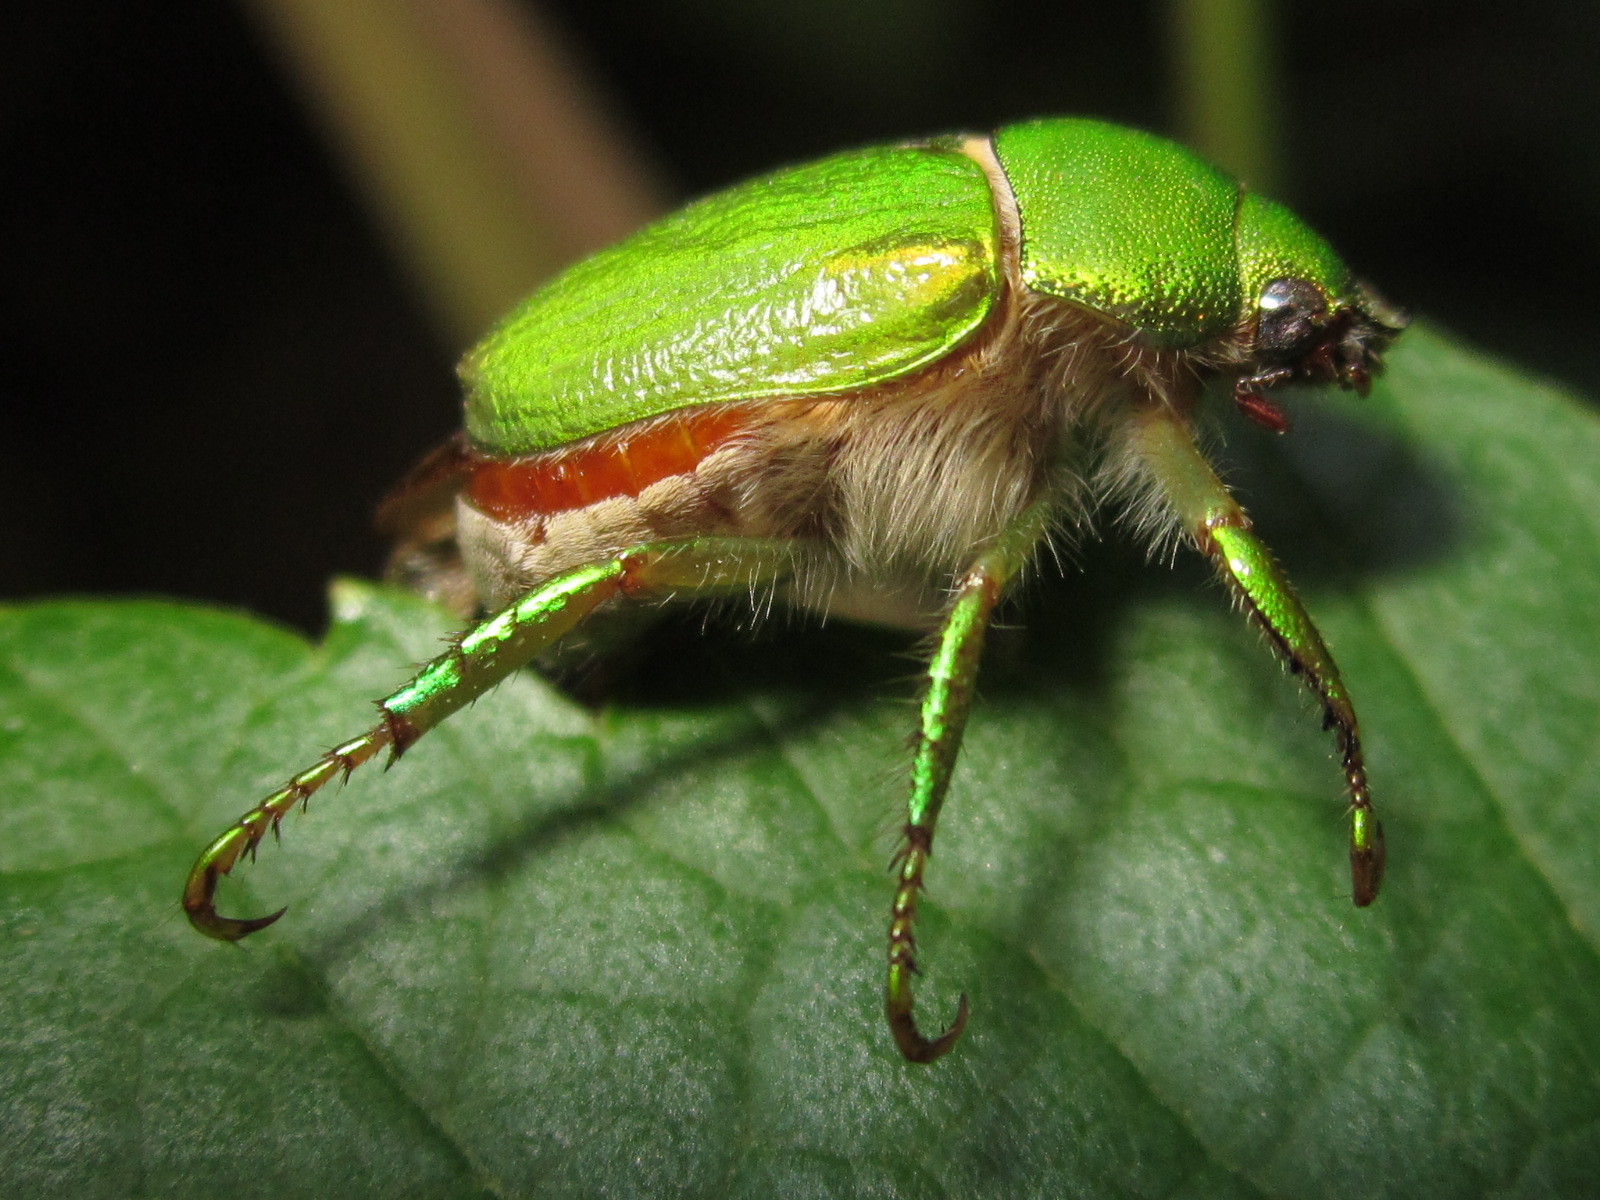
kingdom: Animalia
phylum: Arthropoda
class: Insecta
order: Coleoptera
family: Scarabaeidae
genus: Hylamorpha
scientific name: Hylamorpha elegans
